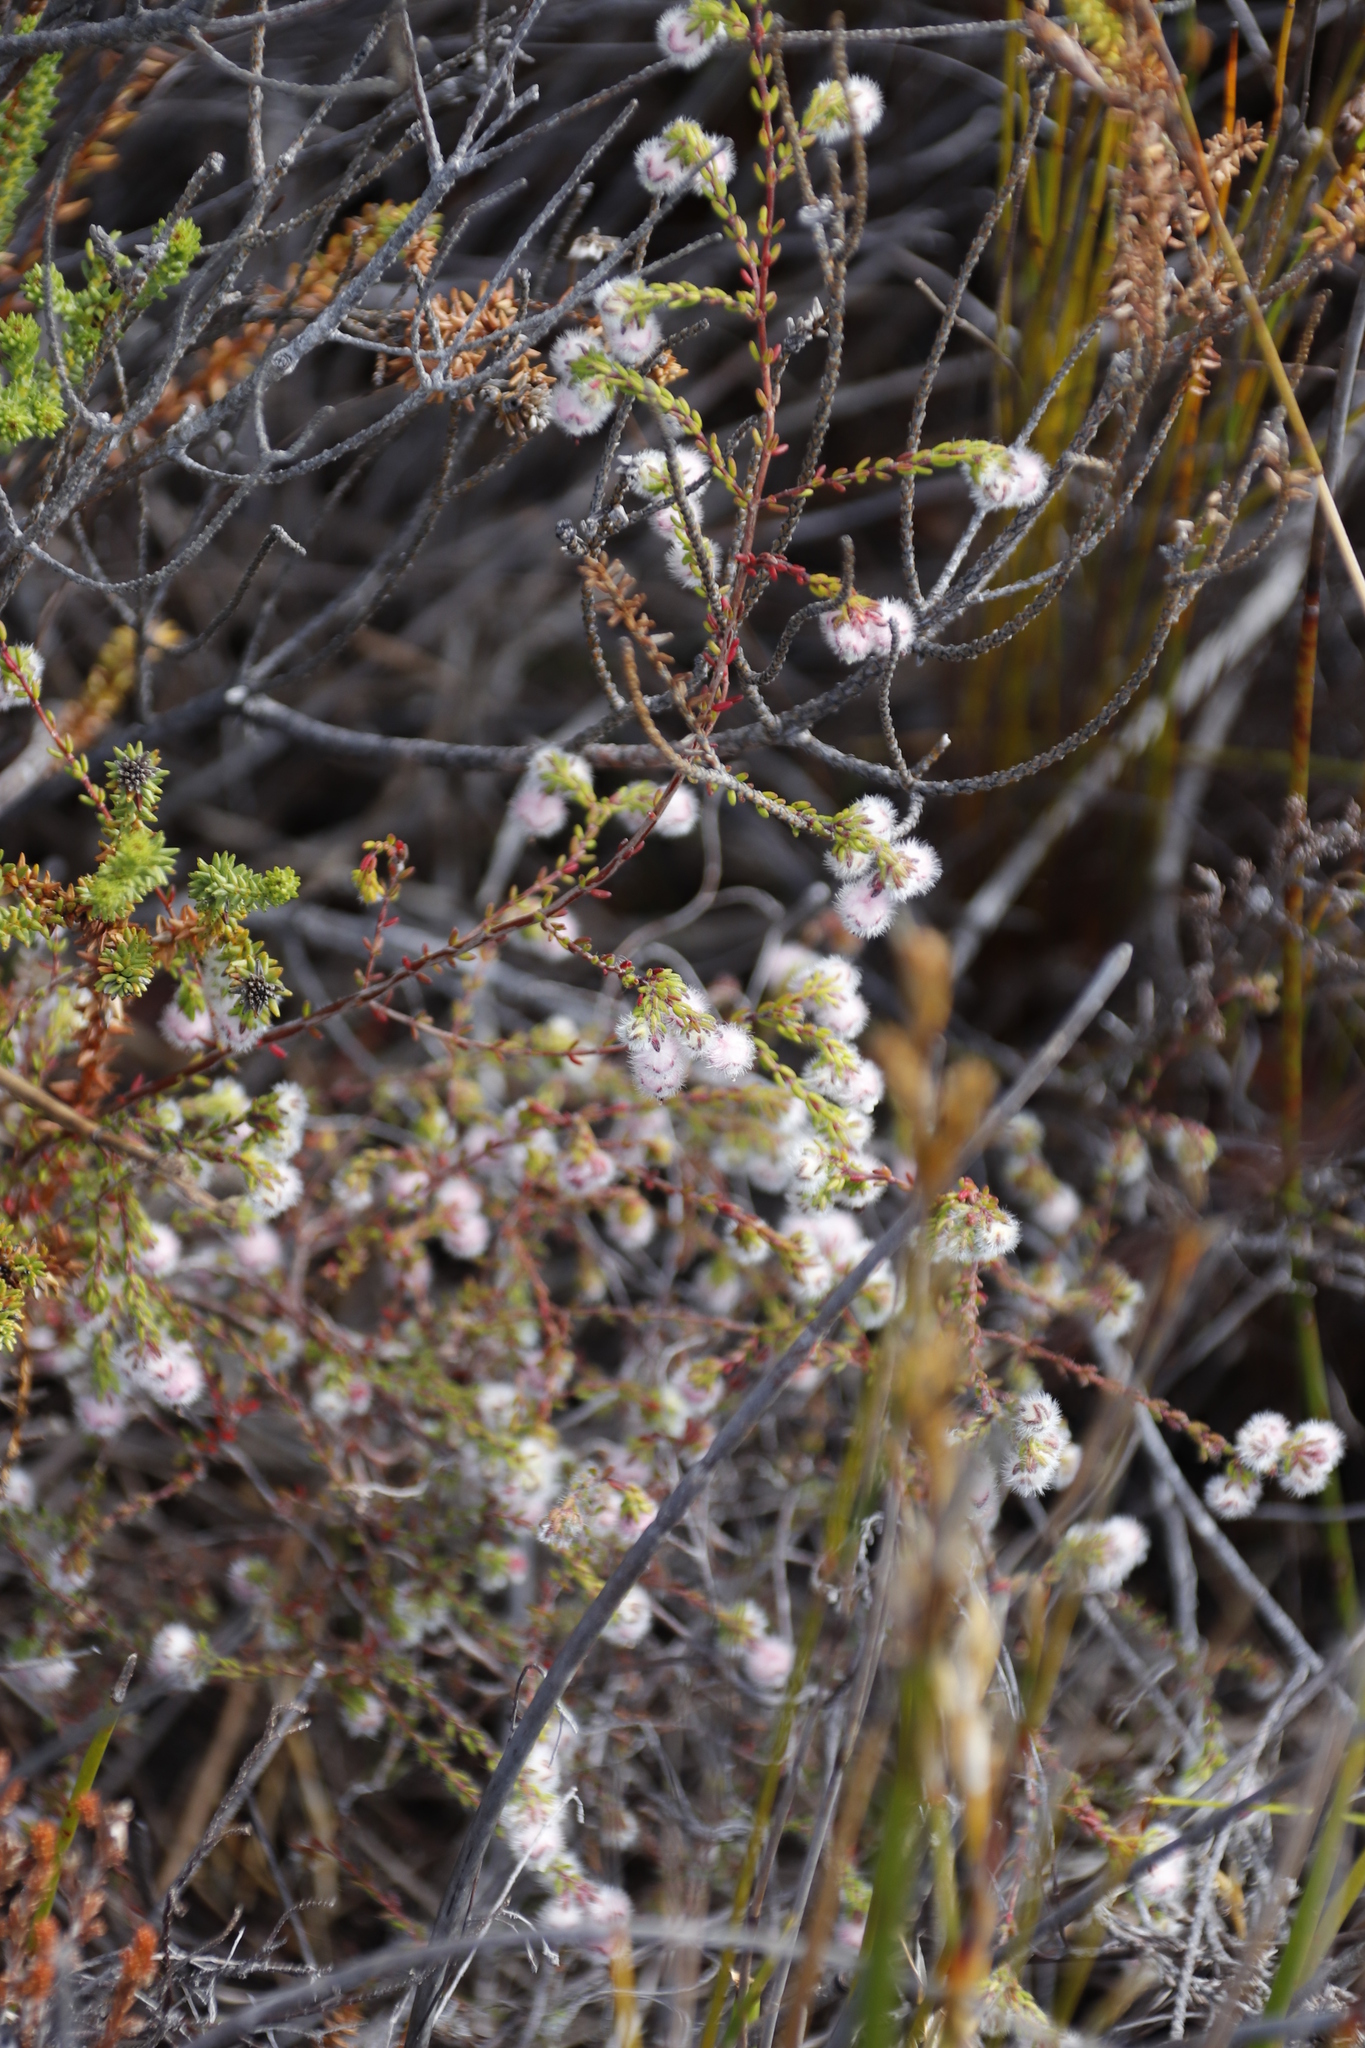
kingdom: Plantae
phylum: Tracheophyta
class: Magnoliopsida
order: Ericales
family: Ericaceae
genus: Erica
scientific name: Erica bruniades
